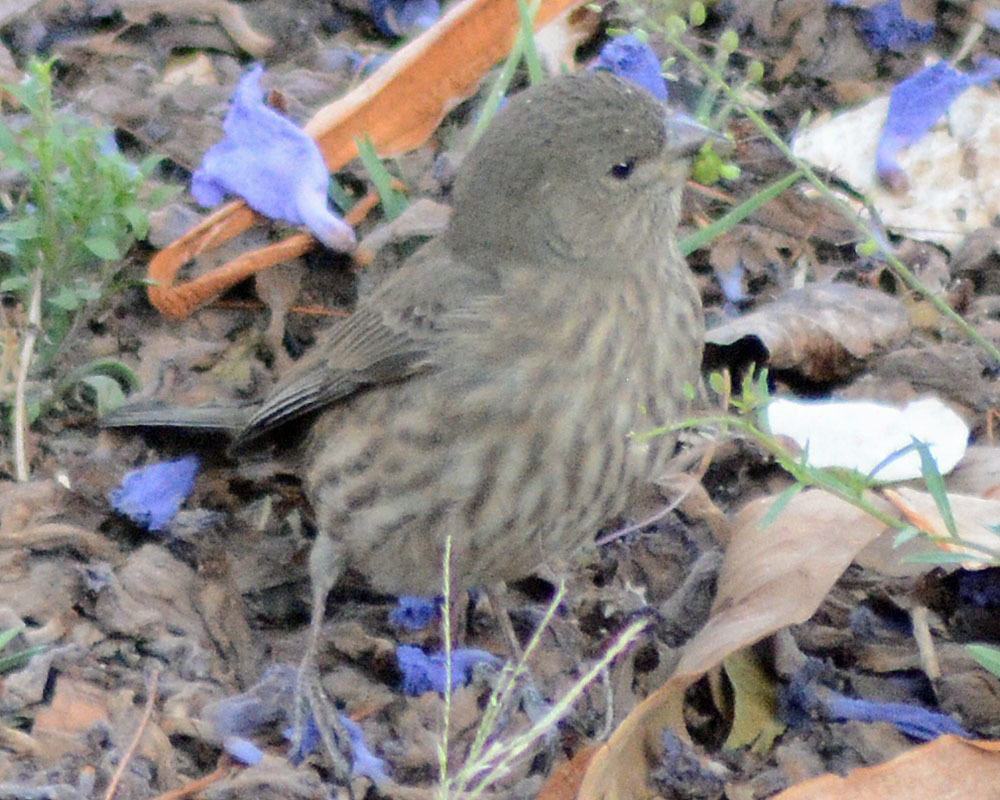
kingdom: Animalia
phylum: Chordata
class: Aves
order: Passeriformes
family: Fringillidae
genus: Haemorhous
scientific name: Haemorhous mexicanus
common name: House finch
